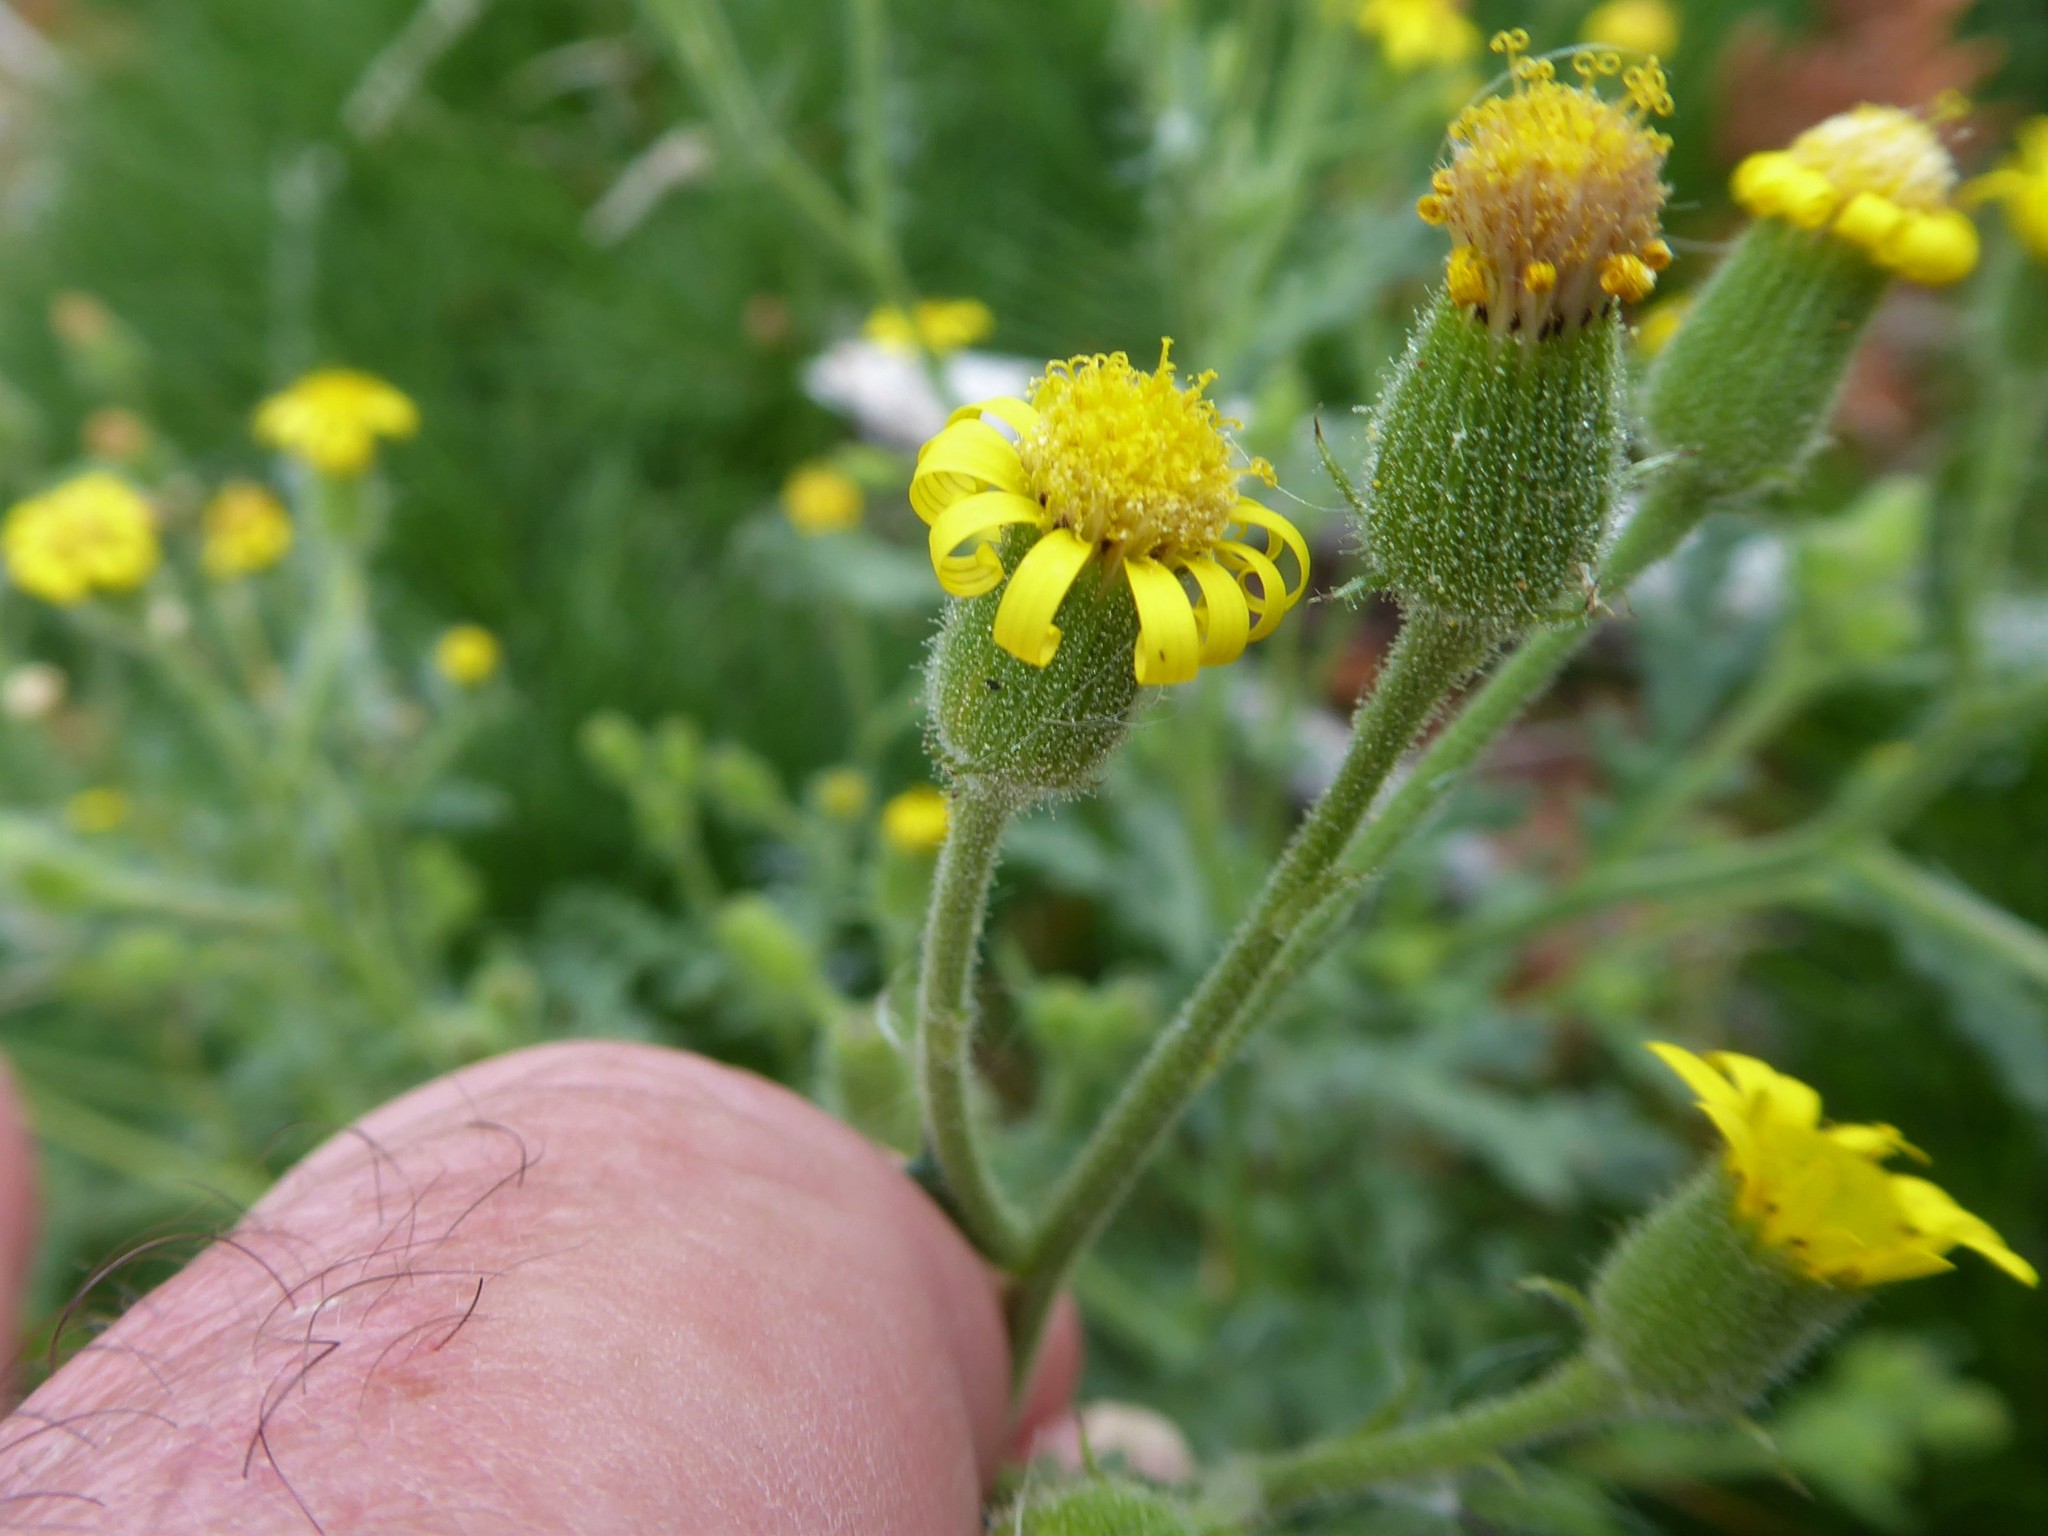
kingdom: Plantae
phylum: Tracheophyta
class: Magnoliopsida
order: Asterales
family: Asteraceae
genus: Senecio
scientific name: Senecio viscosus
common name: Sticky groundsel
